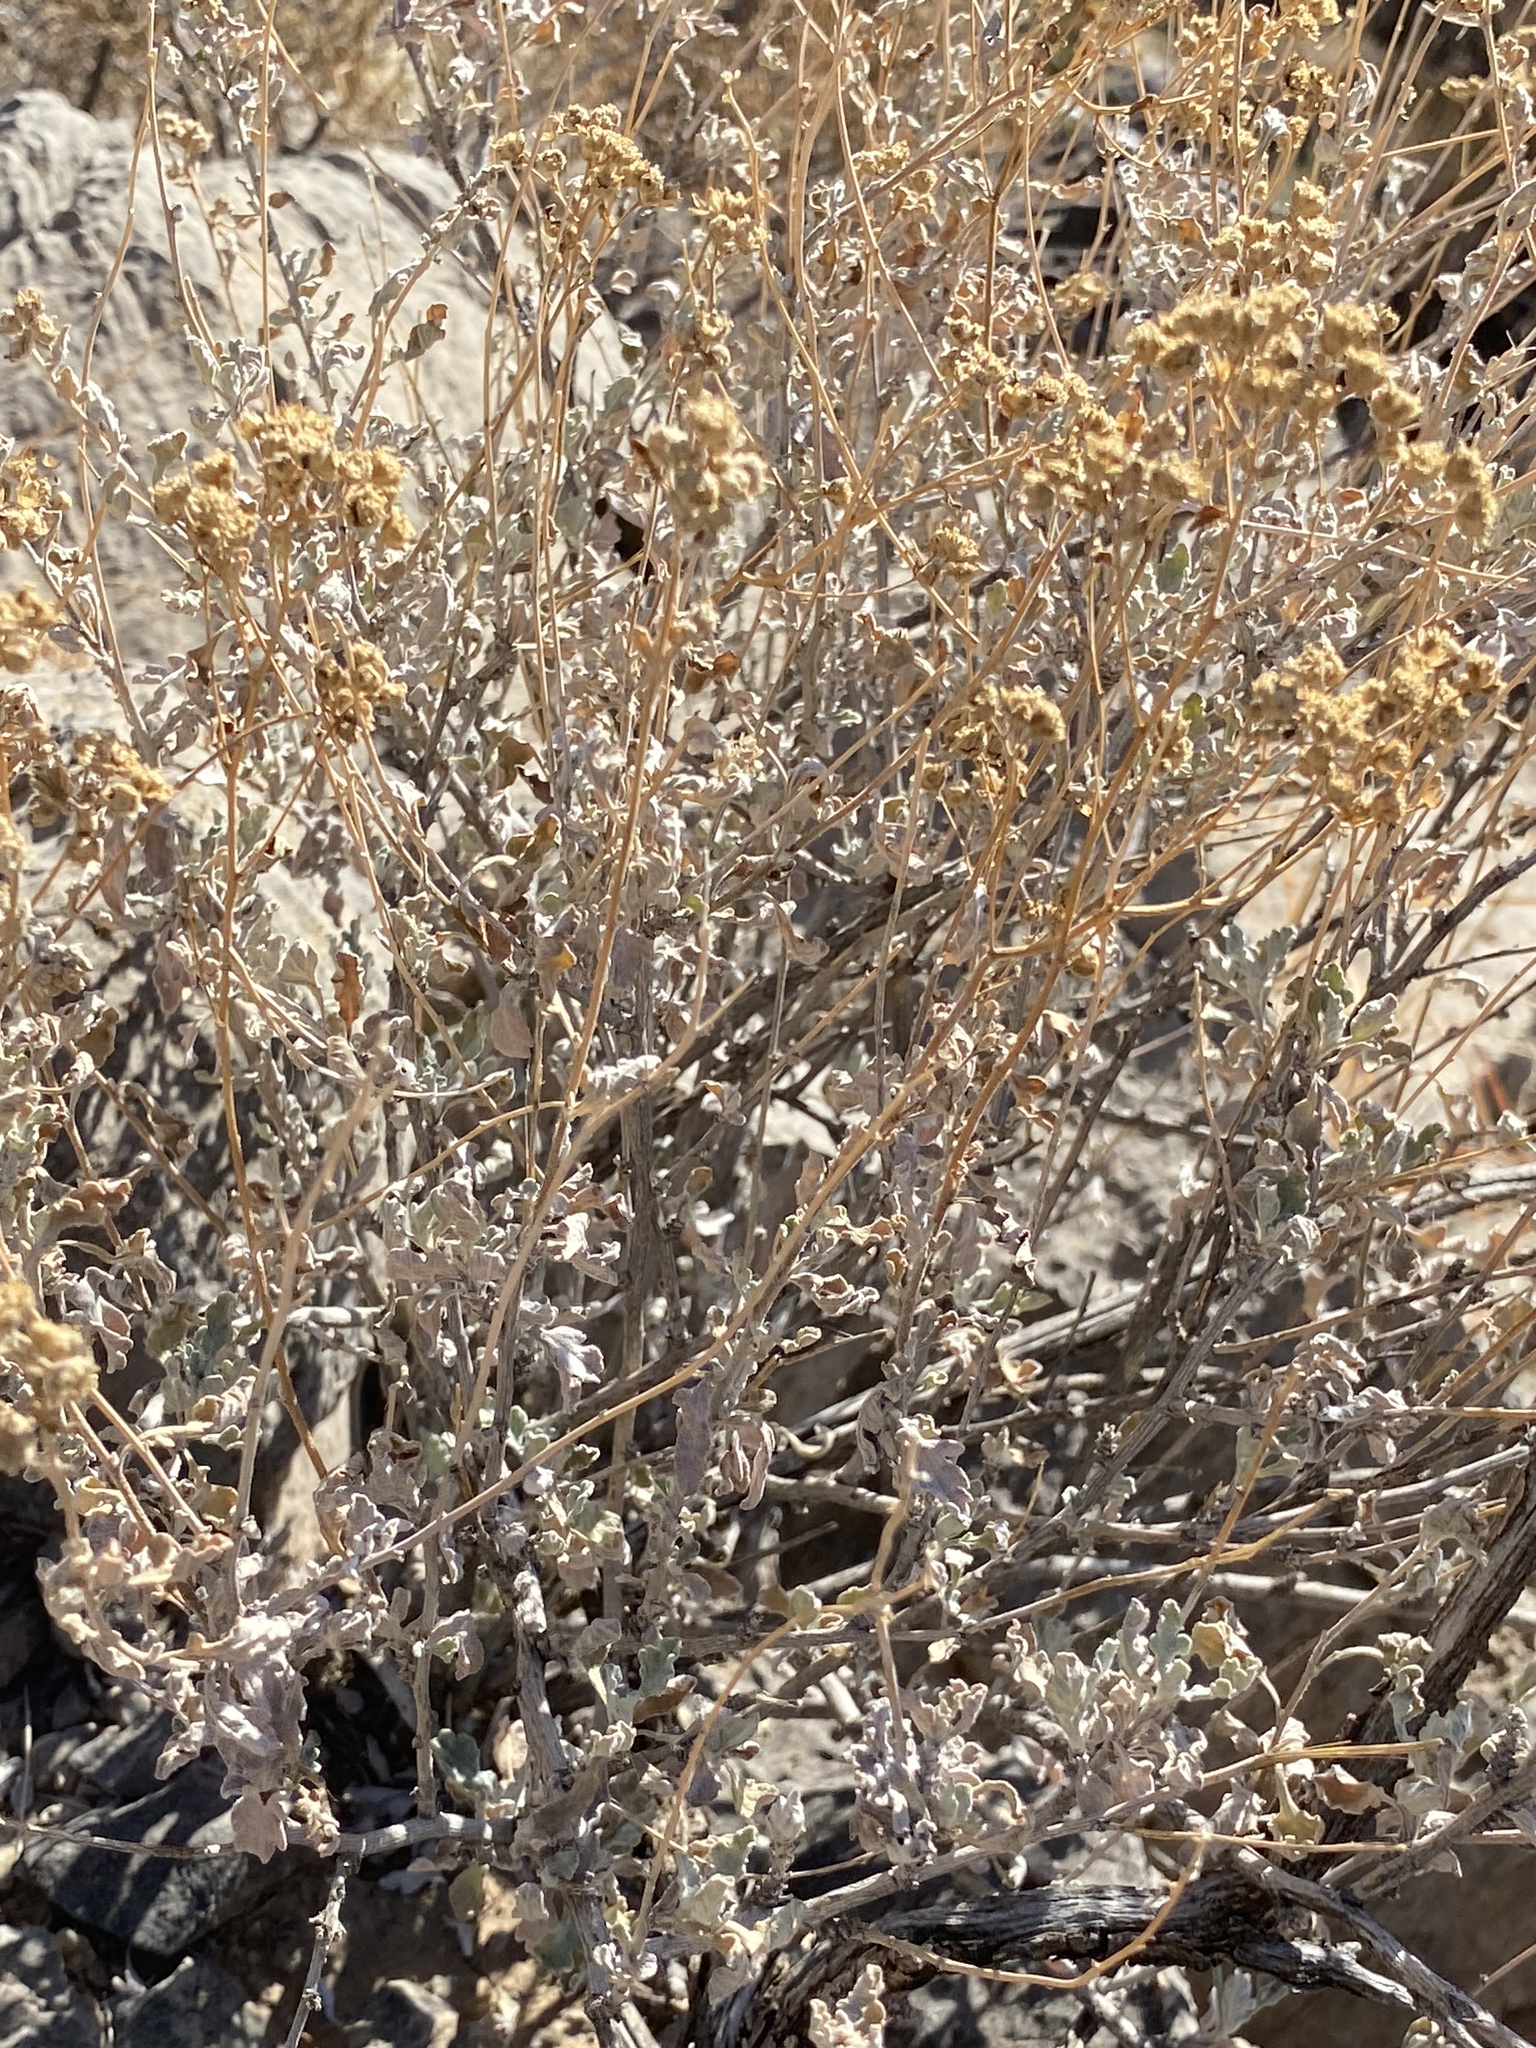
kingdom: Plantae
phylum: Tracheophyta
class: Magnoliopsida
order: Asterales
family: Asteraceae
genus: Parthenium
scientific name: Parthenium incanum
